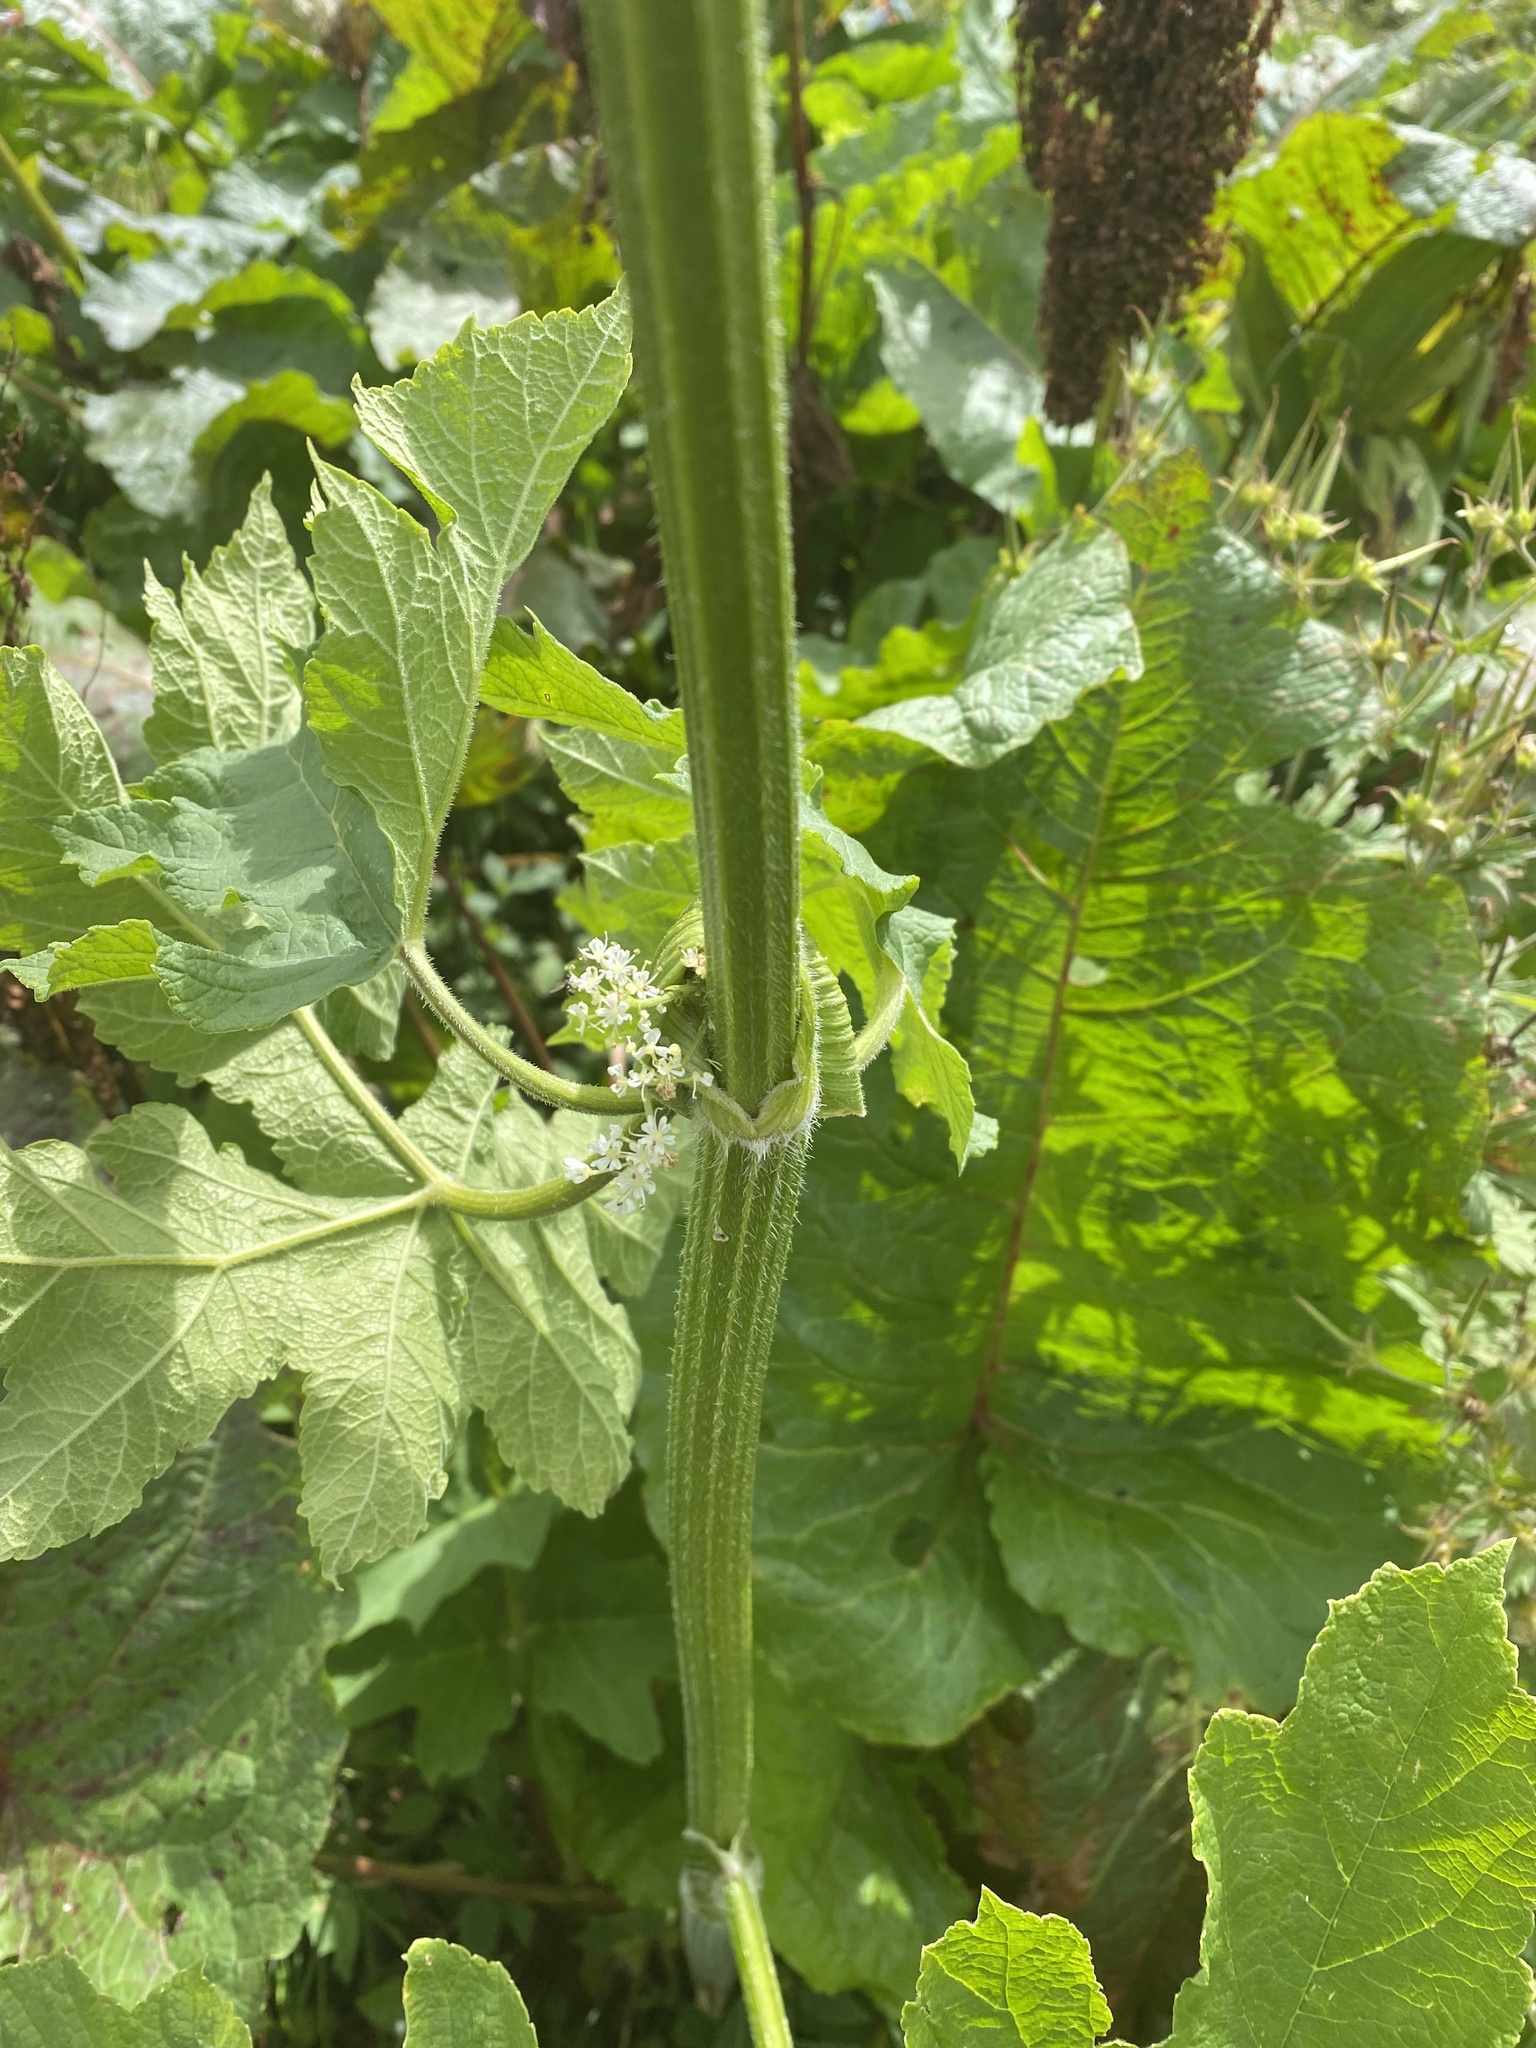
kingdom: Plantae
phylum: Tracheophyta
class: Magnoliopsida
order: Apiales
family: Apiaceae
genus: Heracleum
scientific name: Heracleum sphondylium
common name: Hogweed
